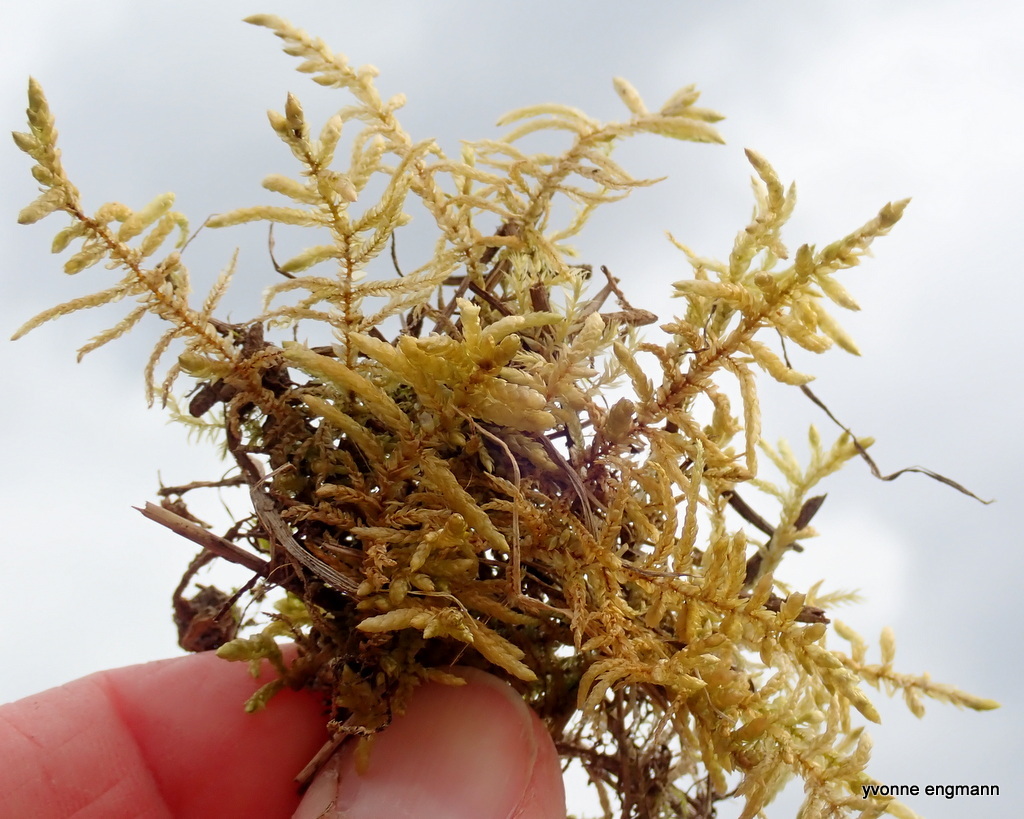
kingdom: Plantae
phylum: Bryophyta
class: Bryopsida
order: Hypnales
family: Hylocomiaceae
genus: Pleurozium
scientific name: Pleurozium schreberi
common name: Red-stemmed feather moss
